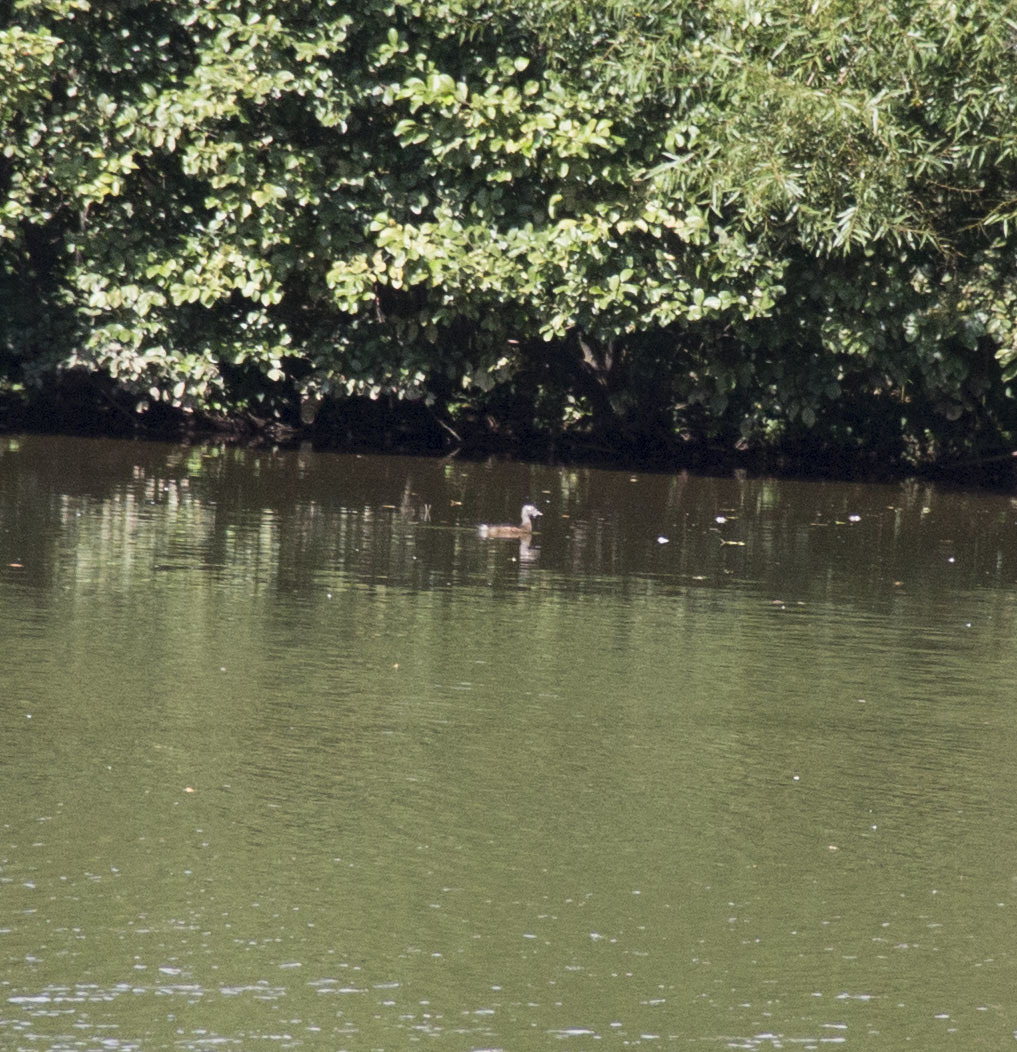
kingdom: Animalia
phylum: Chordata
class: Aves
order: Anseriformes
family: Anatidae
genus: Aix
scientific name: Aix sponsa
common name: Wood duck
